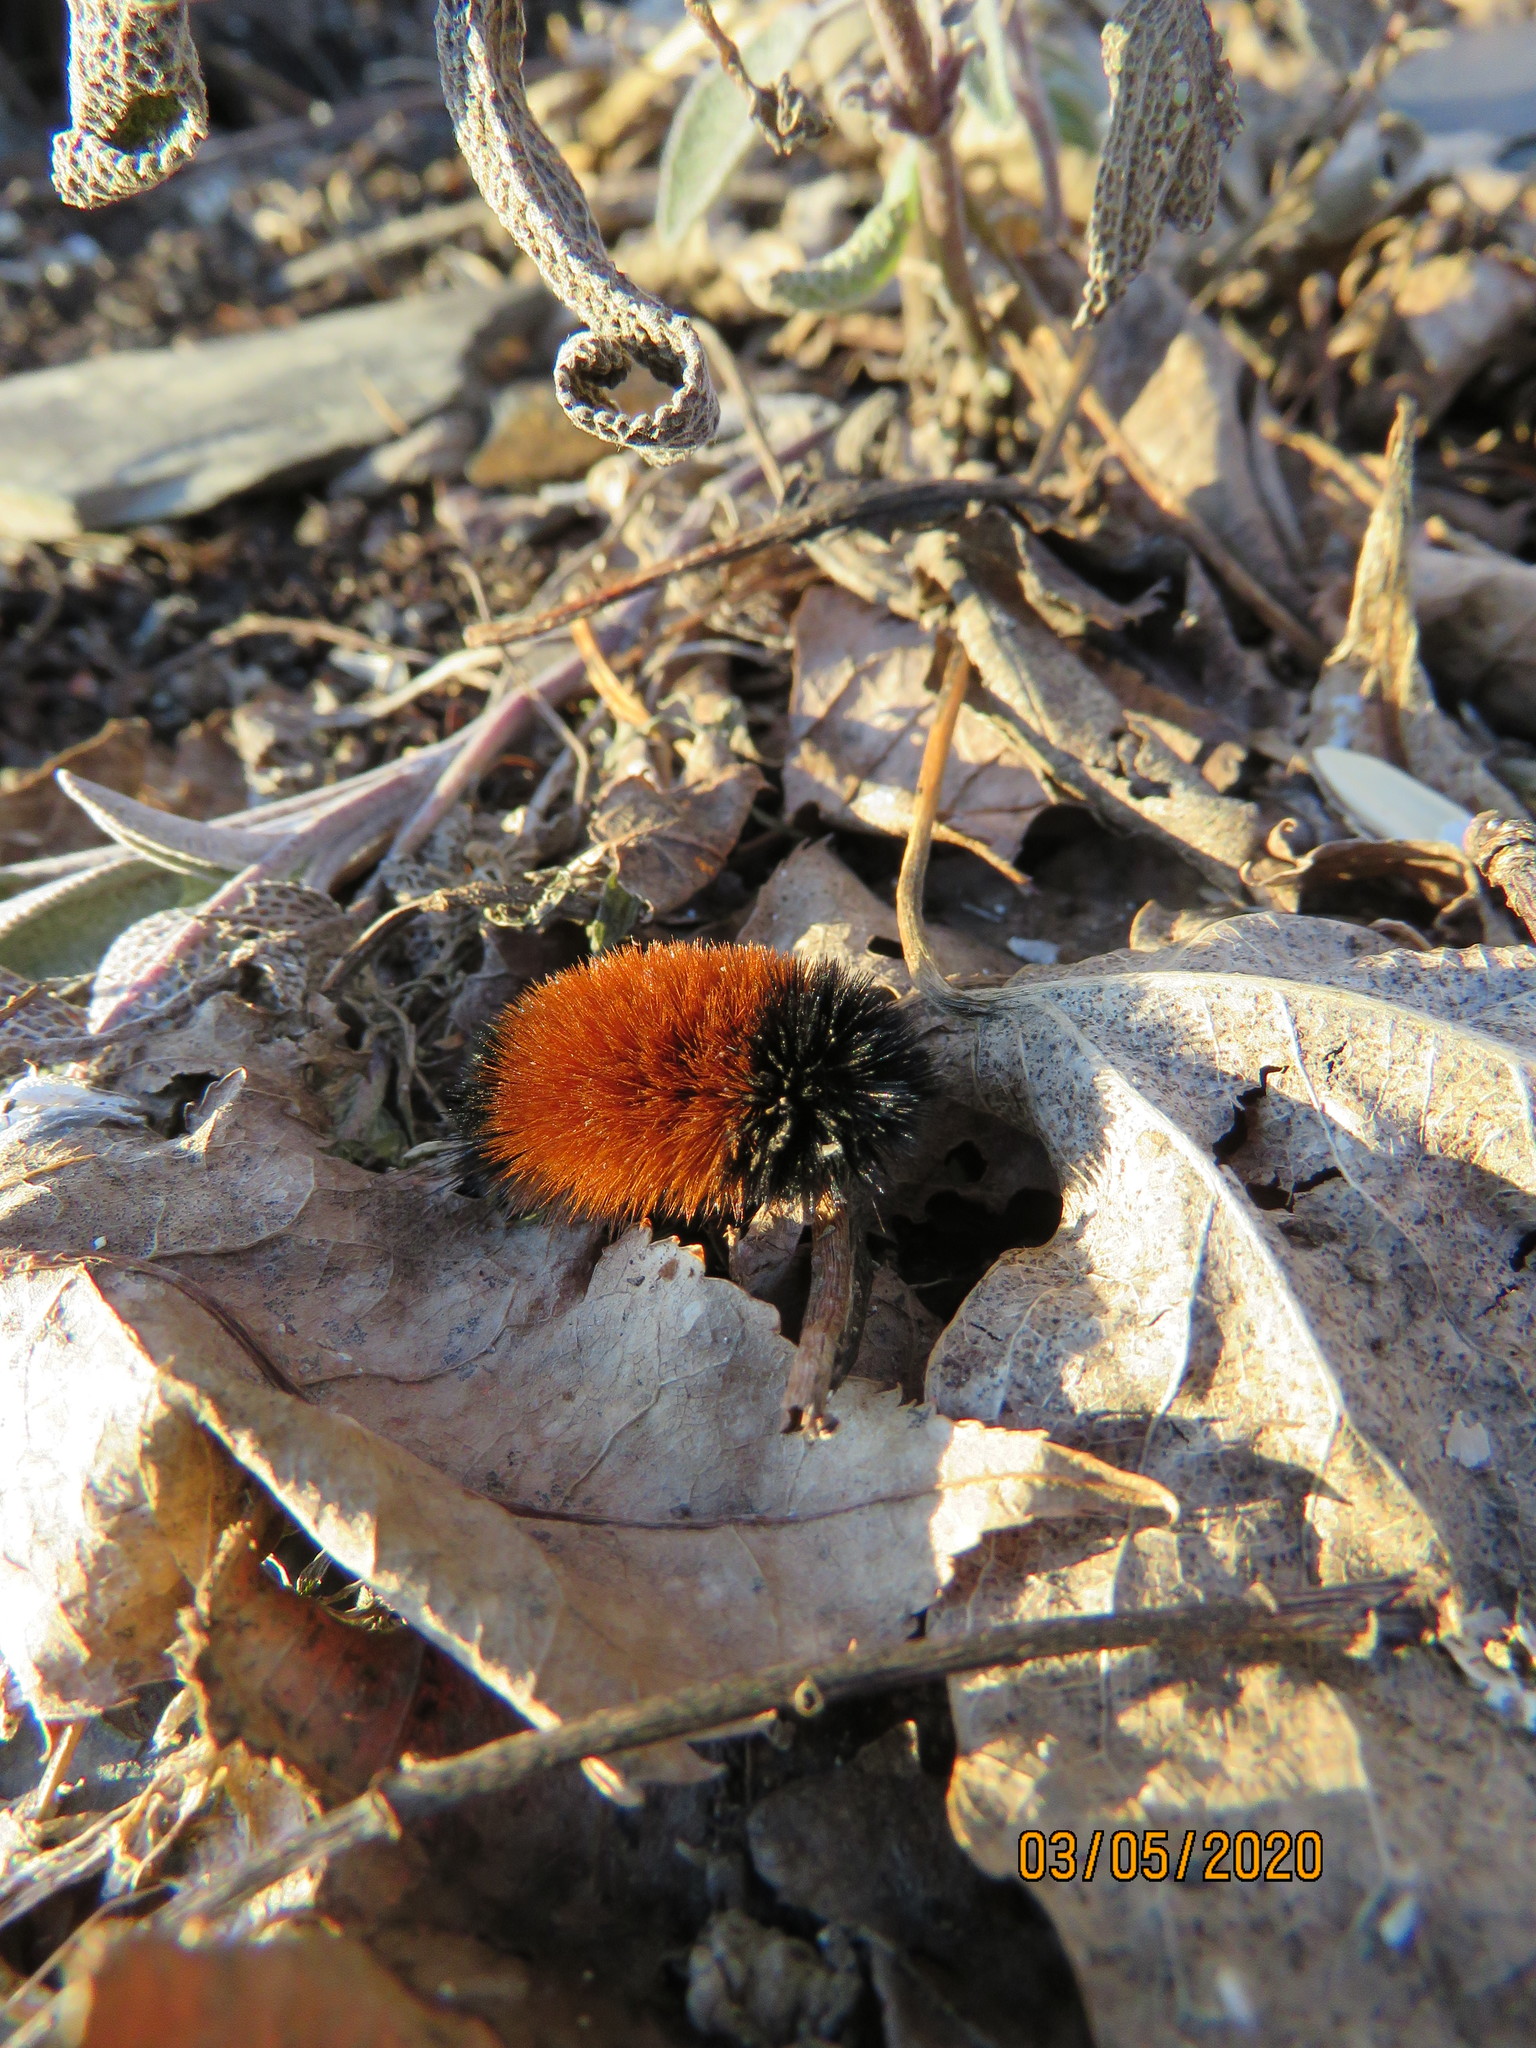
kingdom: Animalia
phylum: Arthropoda
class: Insecta
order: Lepidoptera
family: Erebidae
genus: Pyrrharctia
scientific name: Pyrrharctia isabella
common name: Isabella tiger moth
